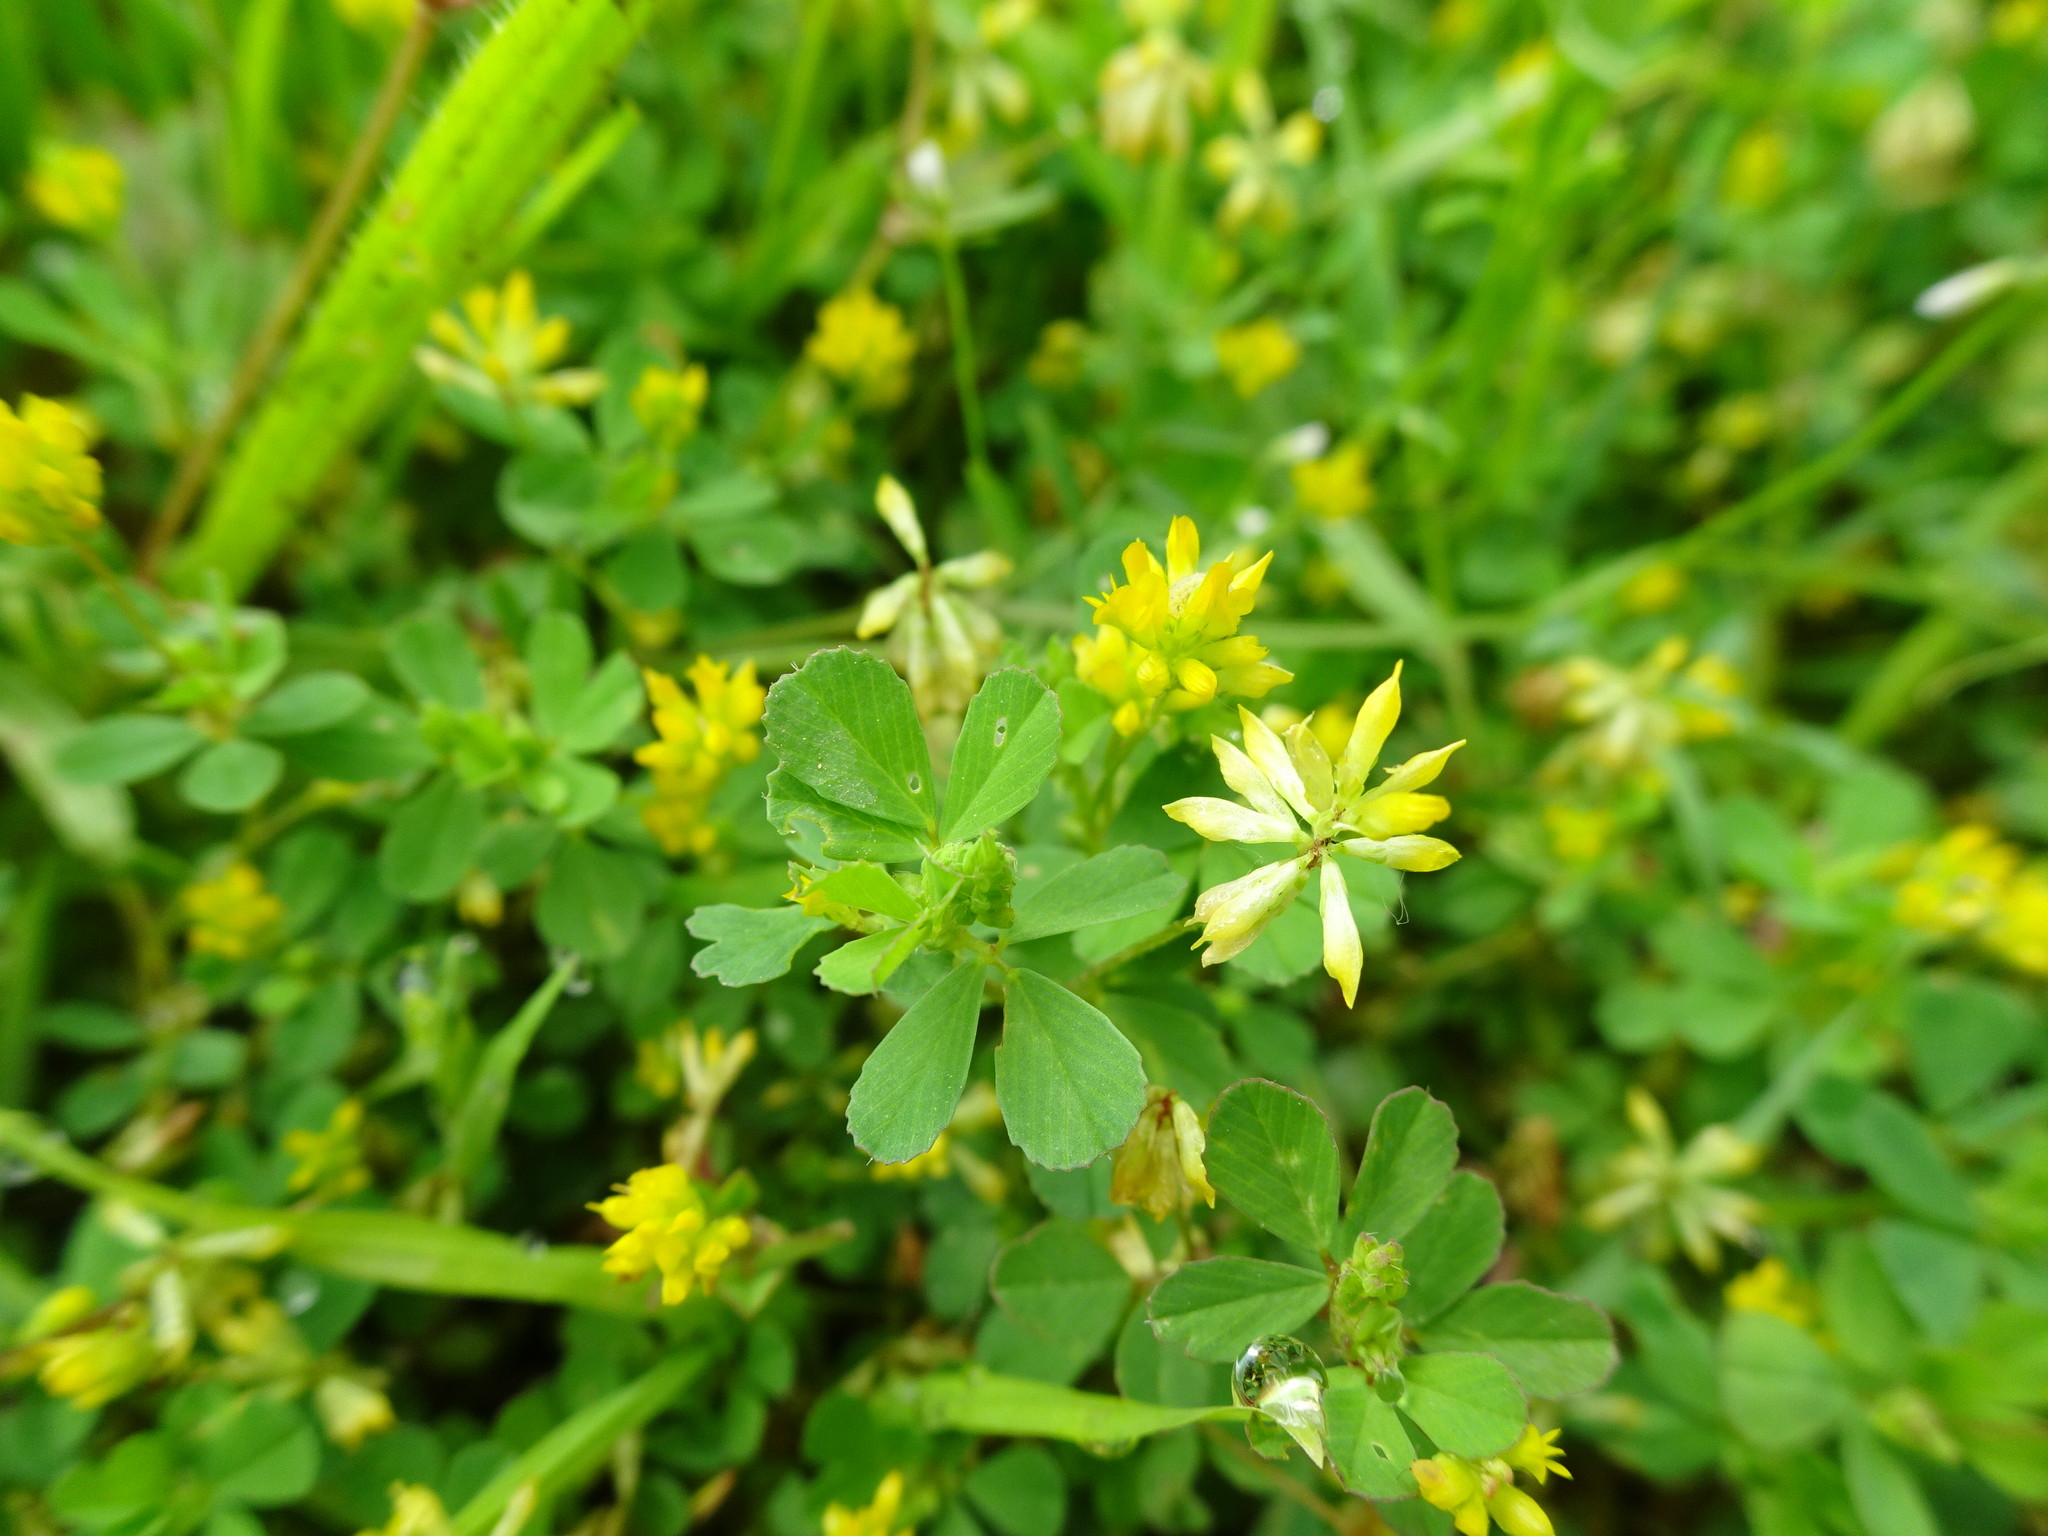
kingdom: Plantae
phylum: Tracheophyta
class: Magnoliopsida
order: Fabales
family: Fabaceae
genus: Trifolium
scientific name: Trifolium dubium
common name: Suckling clover
